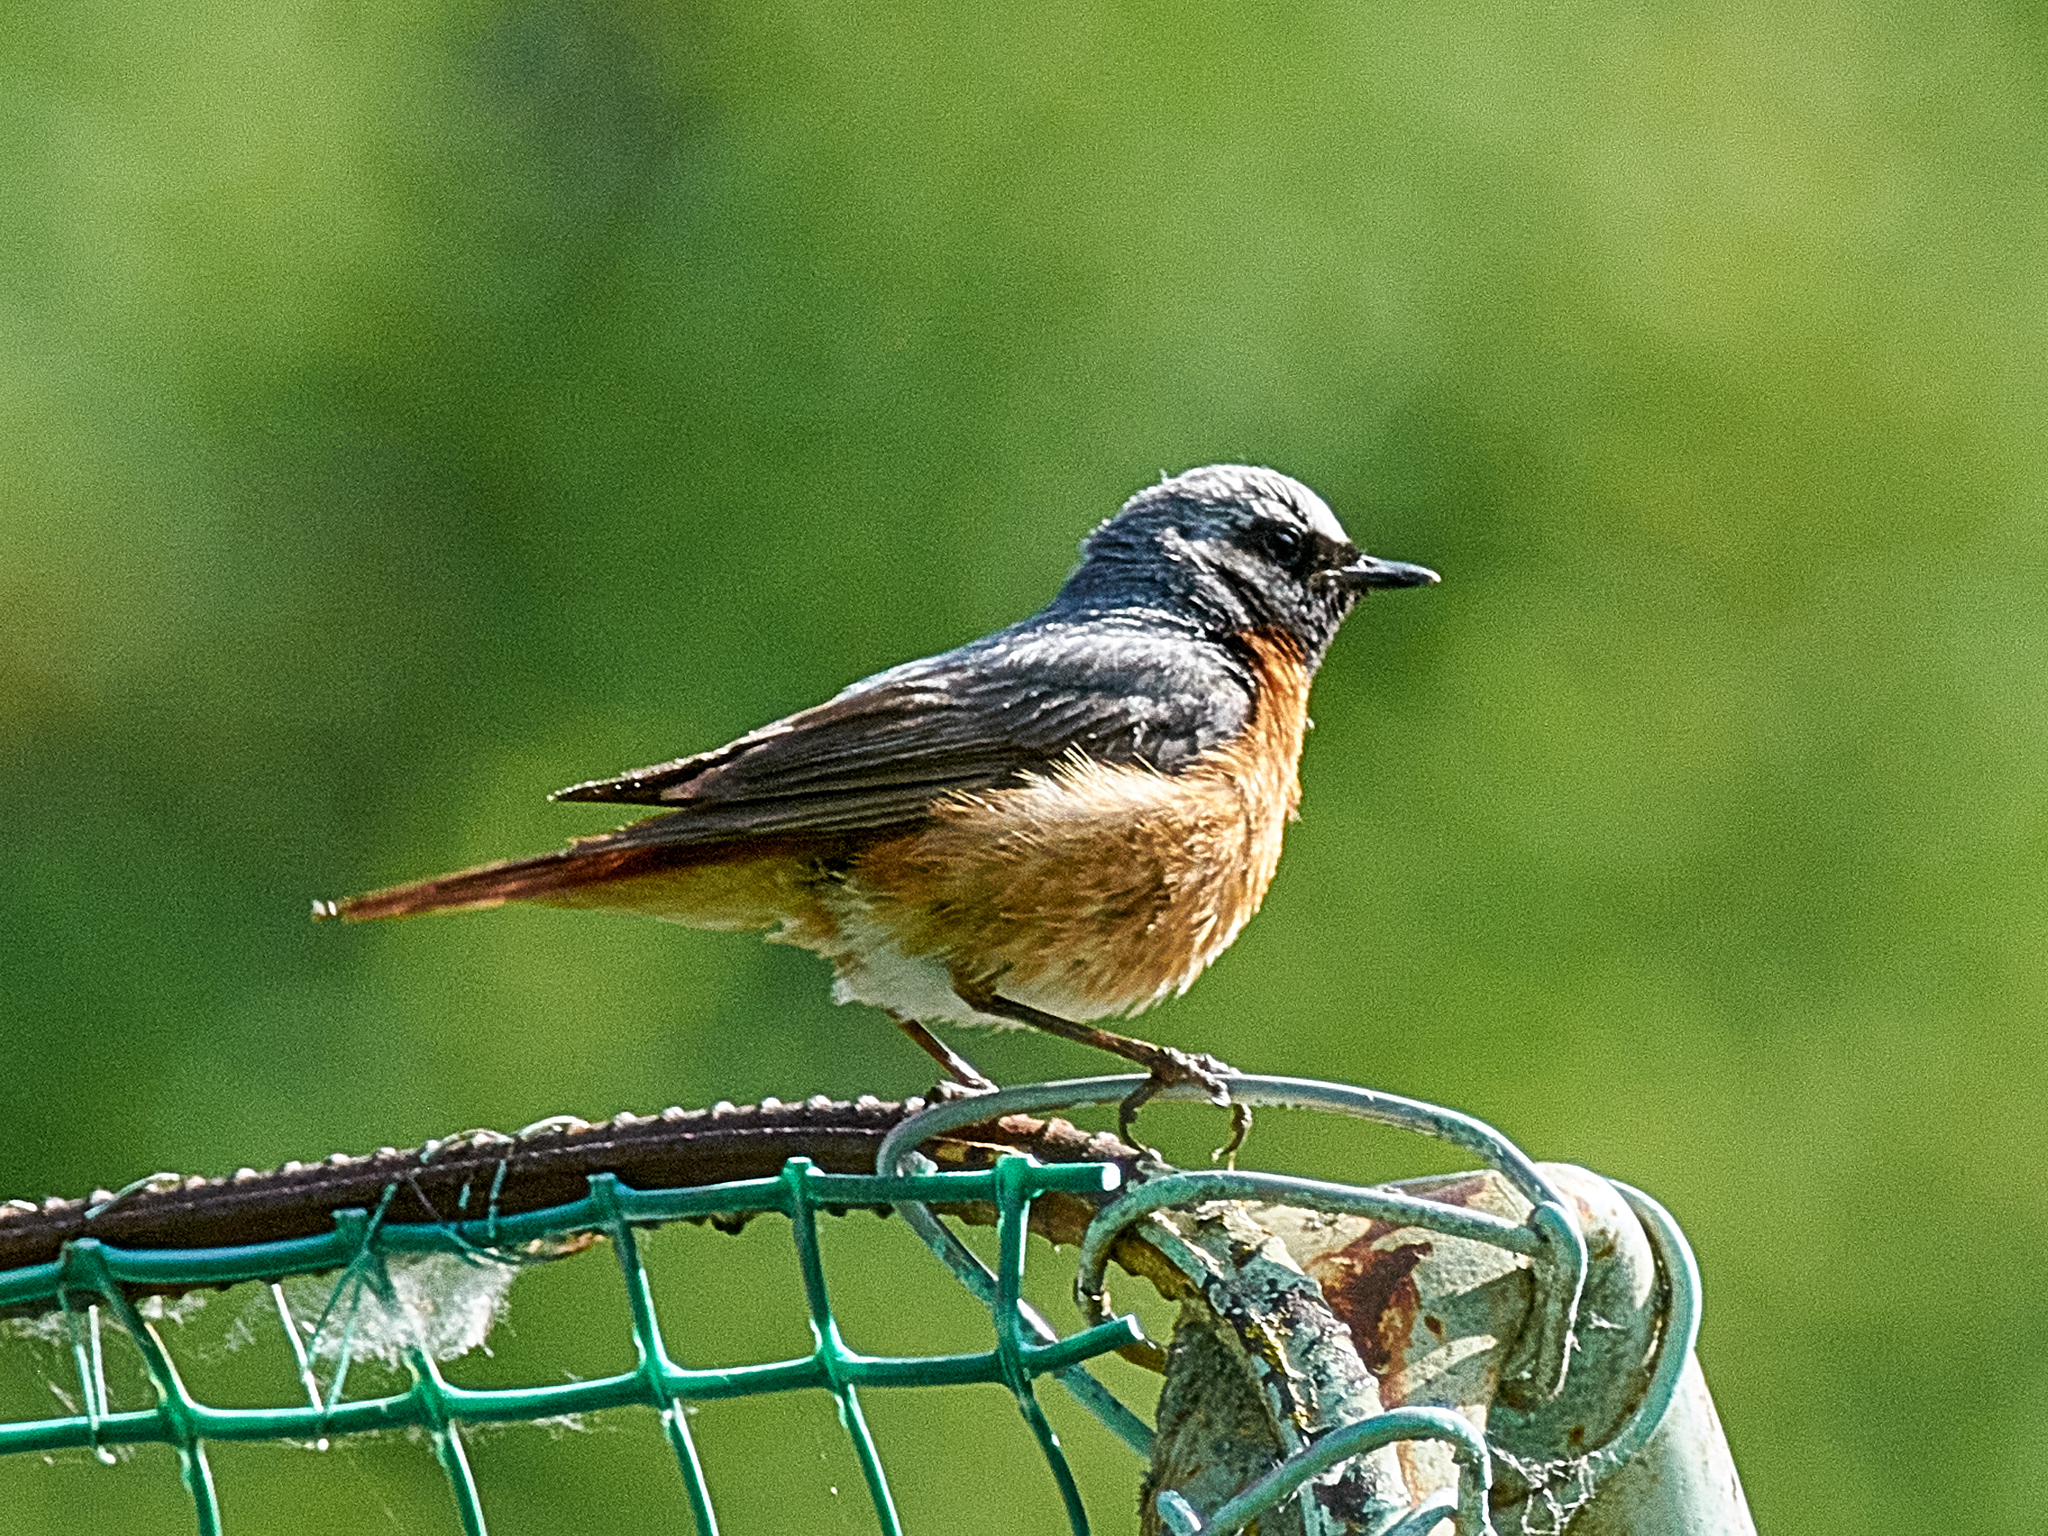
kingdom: Animalia
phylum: Chordata
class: Aves
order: Passeriformes
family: Muscicapidae
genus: Phoenicurus
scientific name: Phoenicurus phoenicurus
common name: Common redstart
